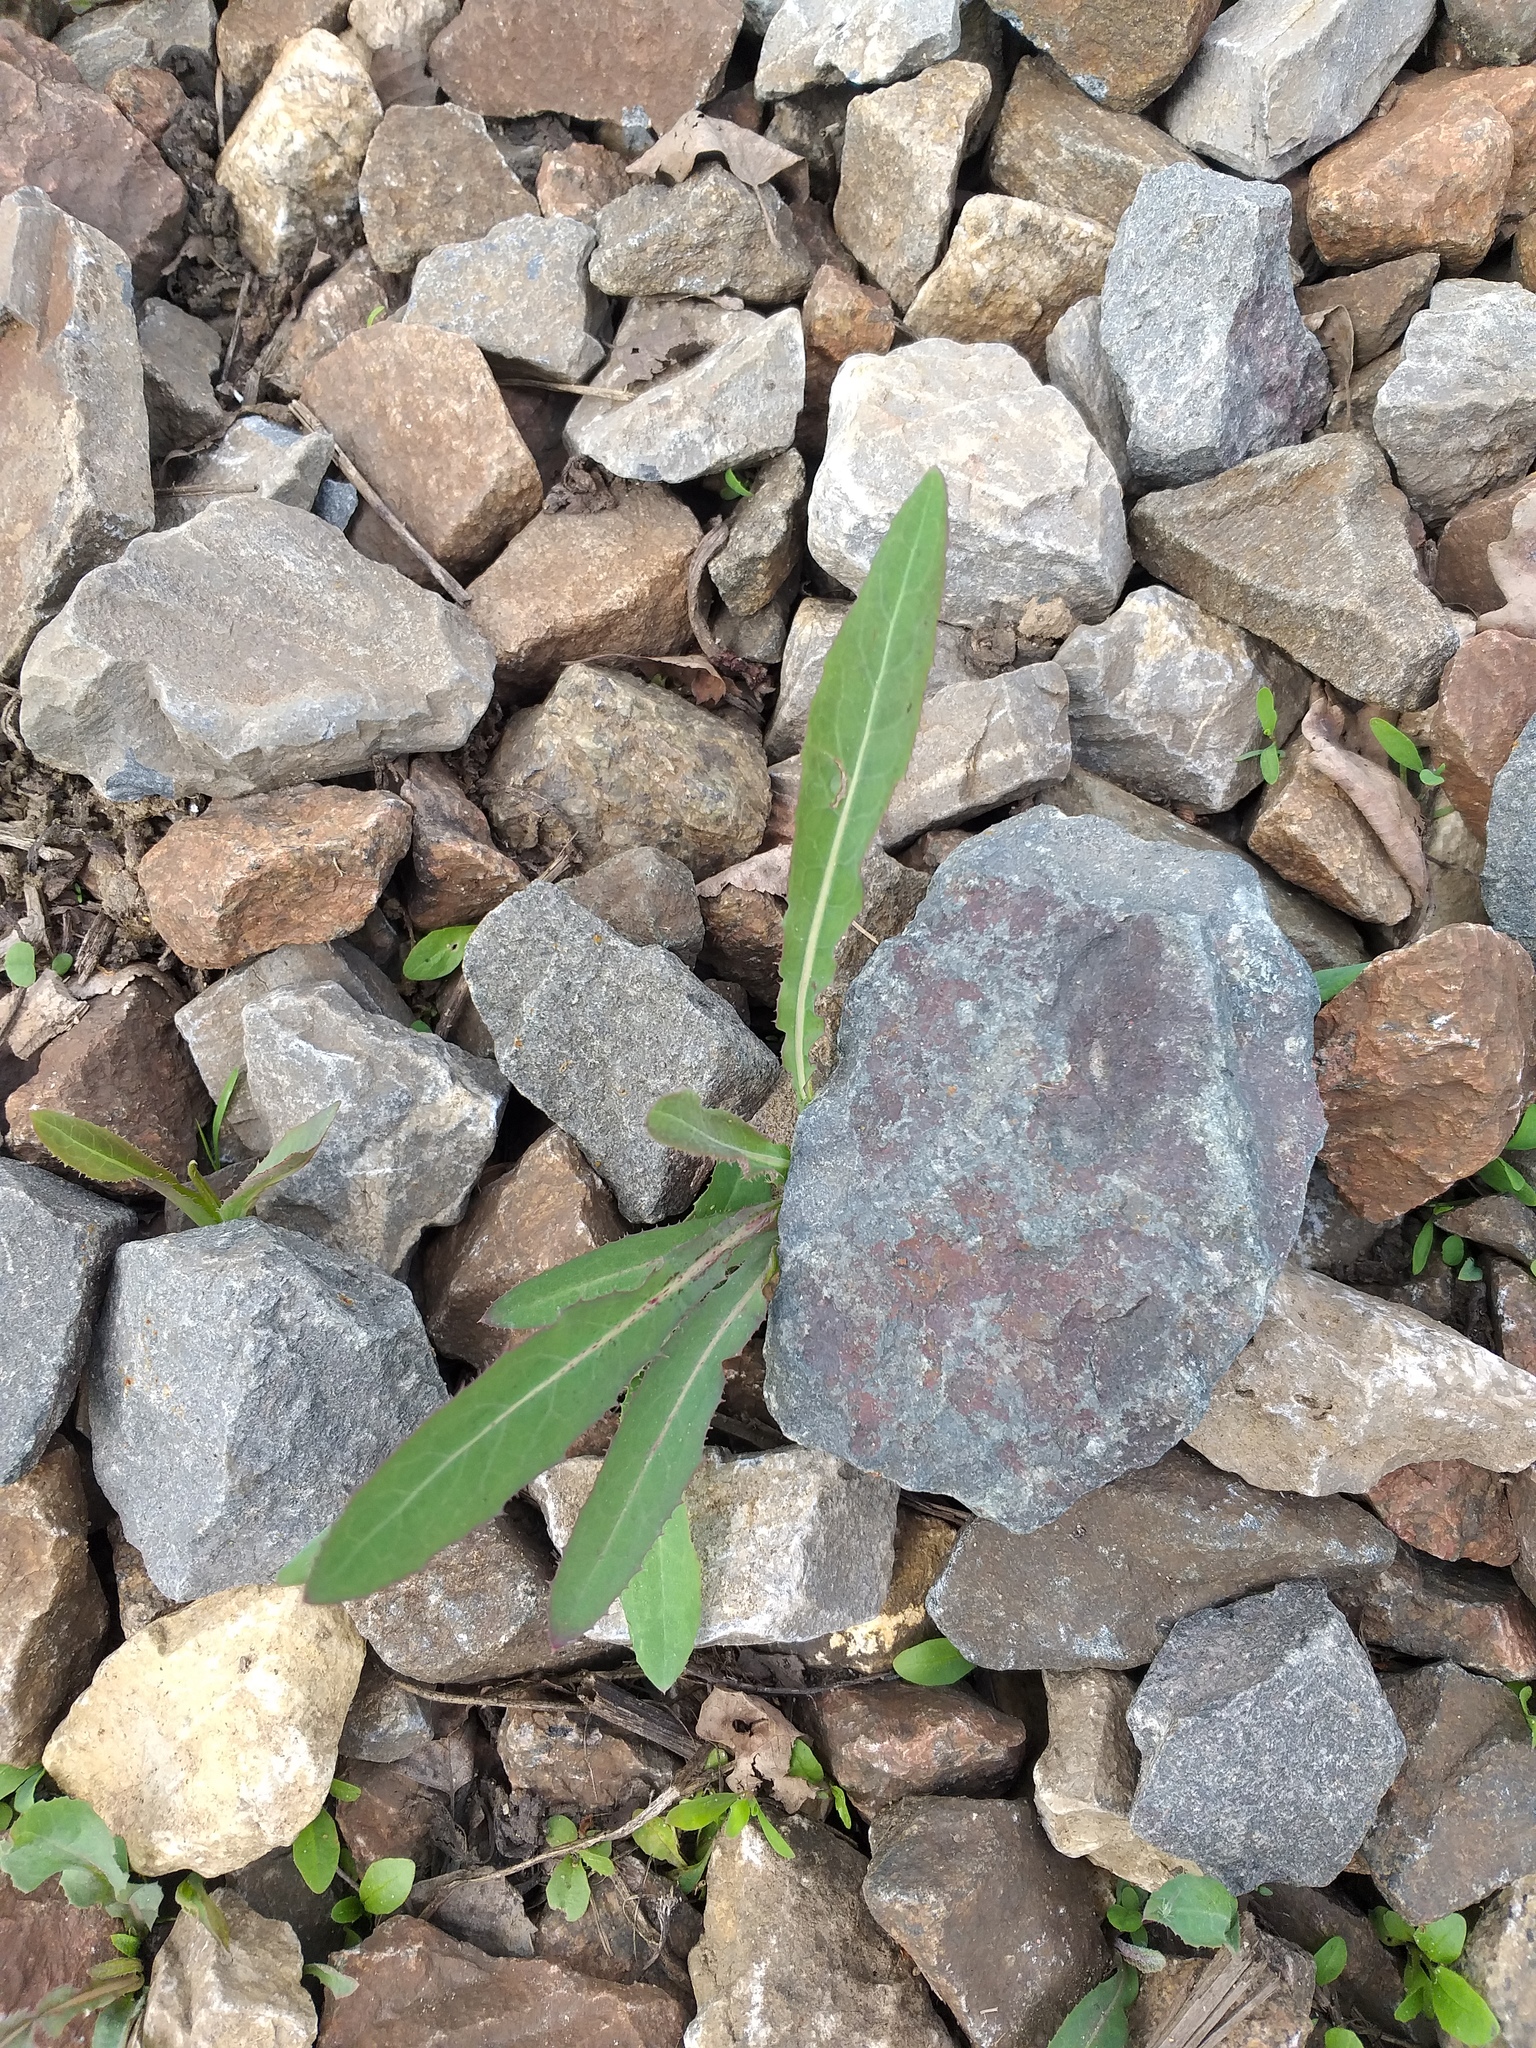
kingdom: Plantae
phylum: Tracheophyta
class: Magnoliopsida
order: Asterales
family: Asteraceae
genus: Sonchus
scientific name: Sonchus arvensis
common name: Perennial sow-thistle
